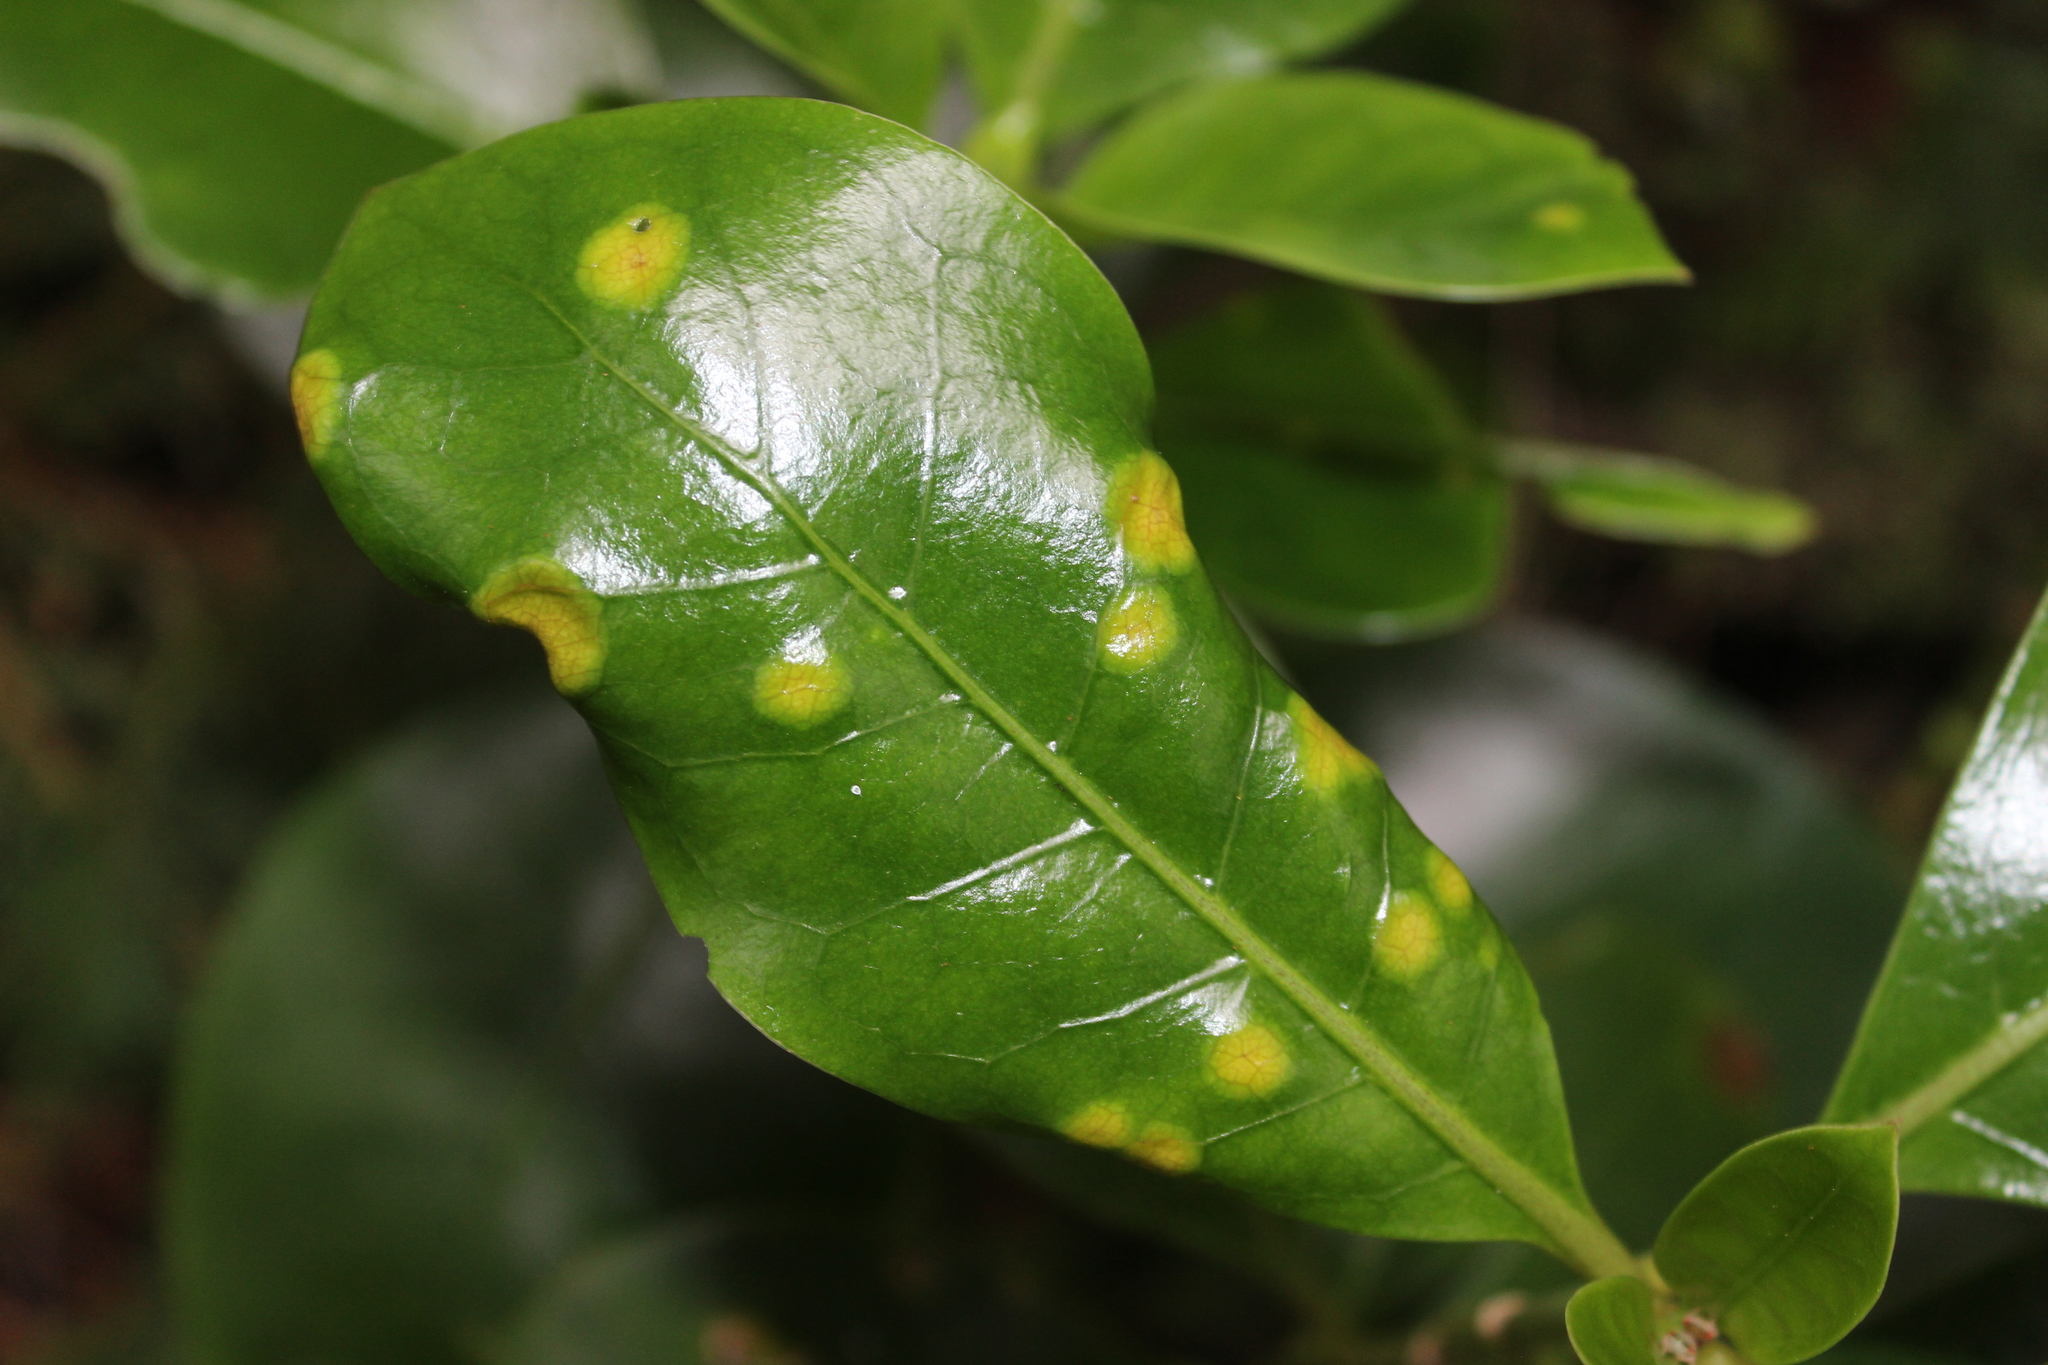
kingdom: Fungi
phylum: Basidiomycota
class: Pucciniomycetes
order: Pucciniales
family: Pucciniaceae
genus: Puccinia
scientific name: Puccinia coprosmae
